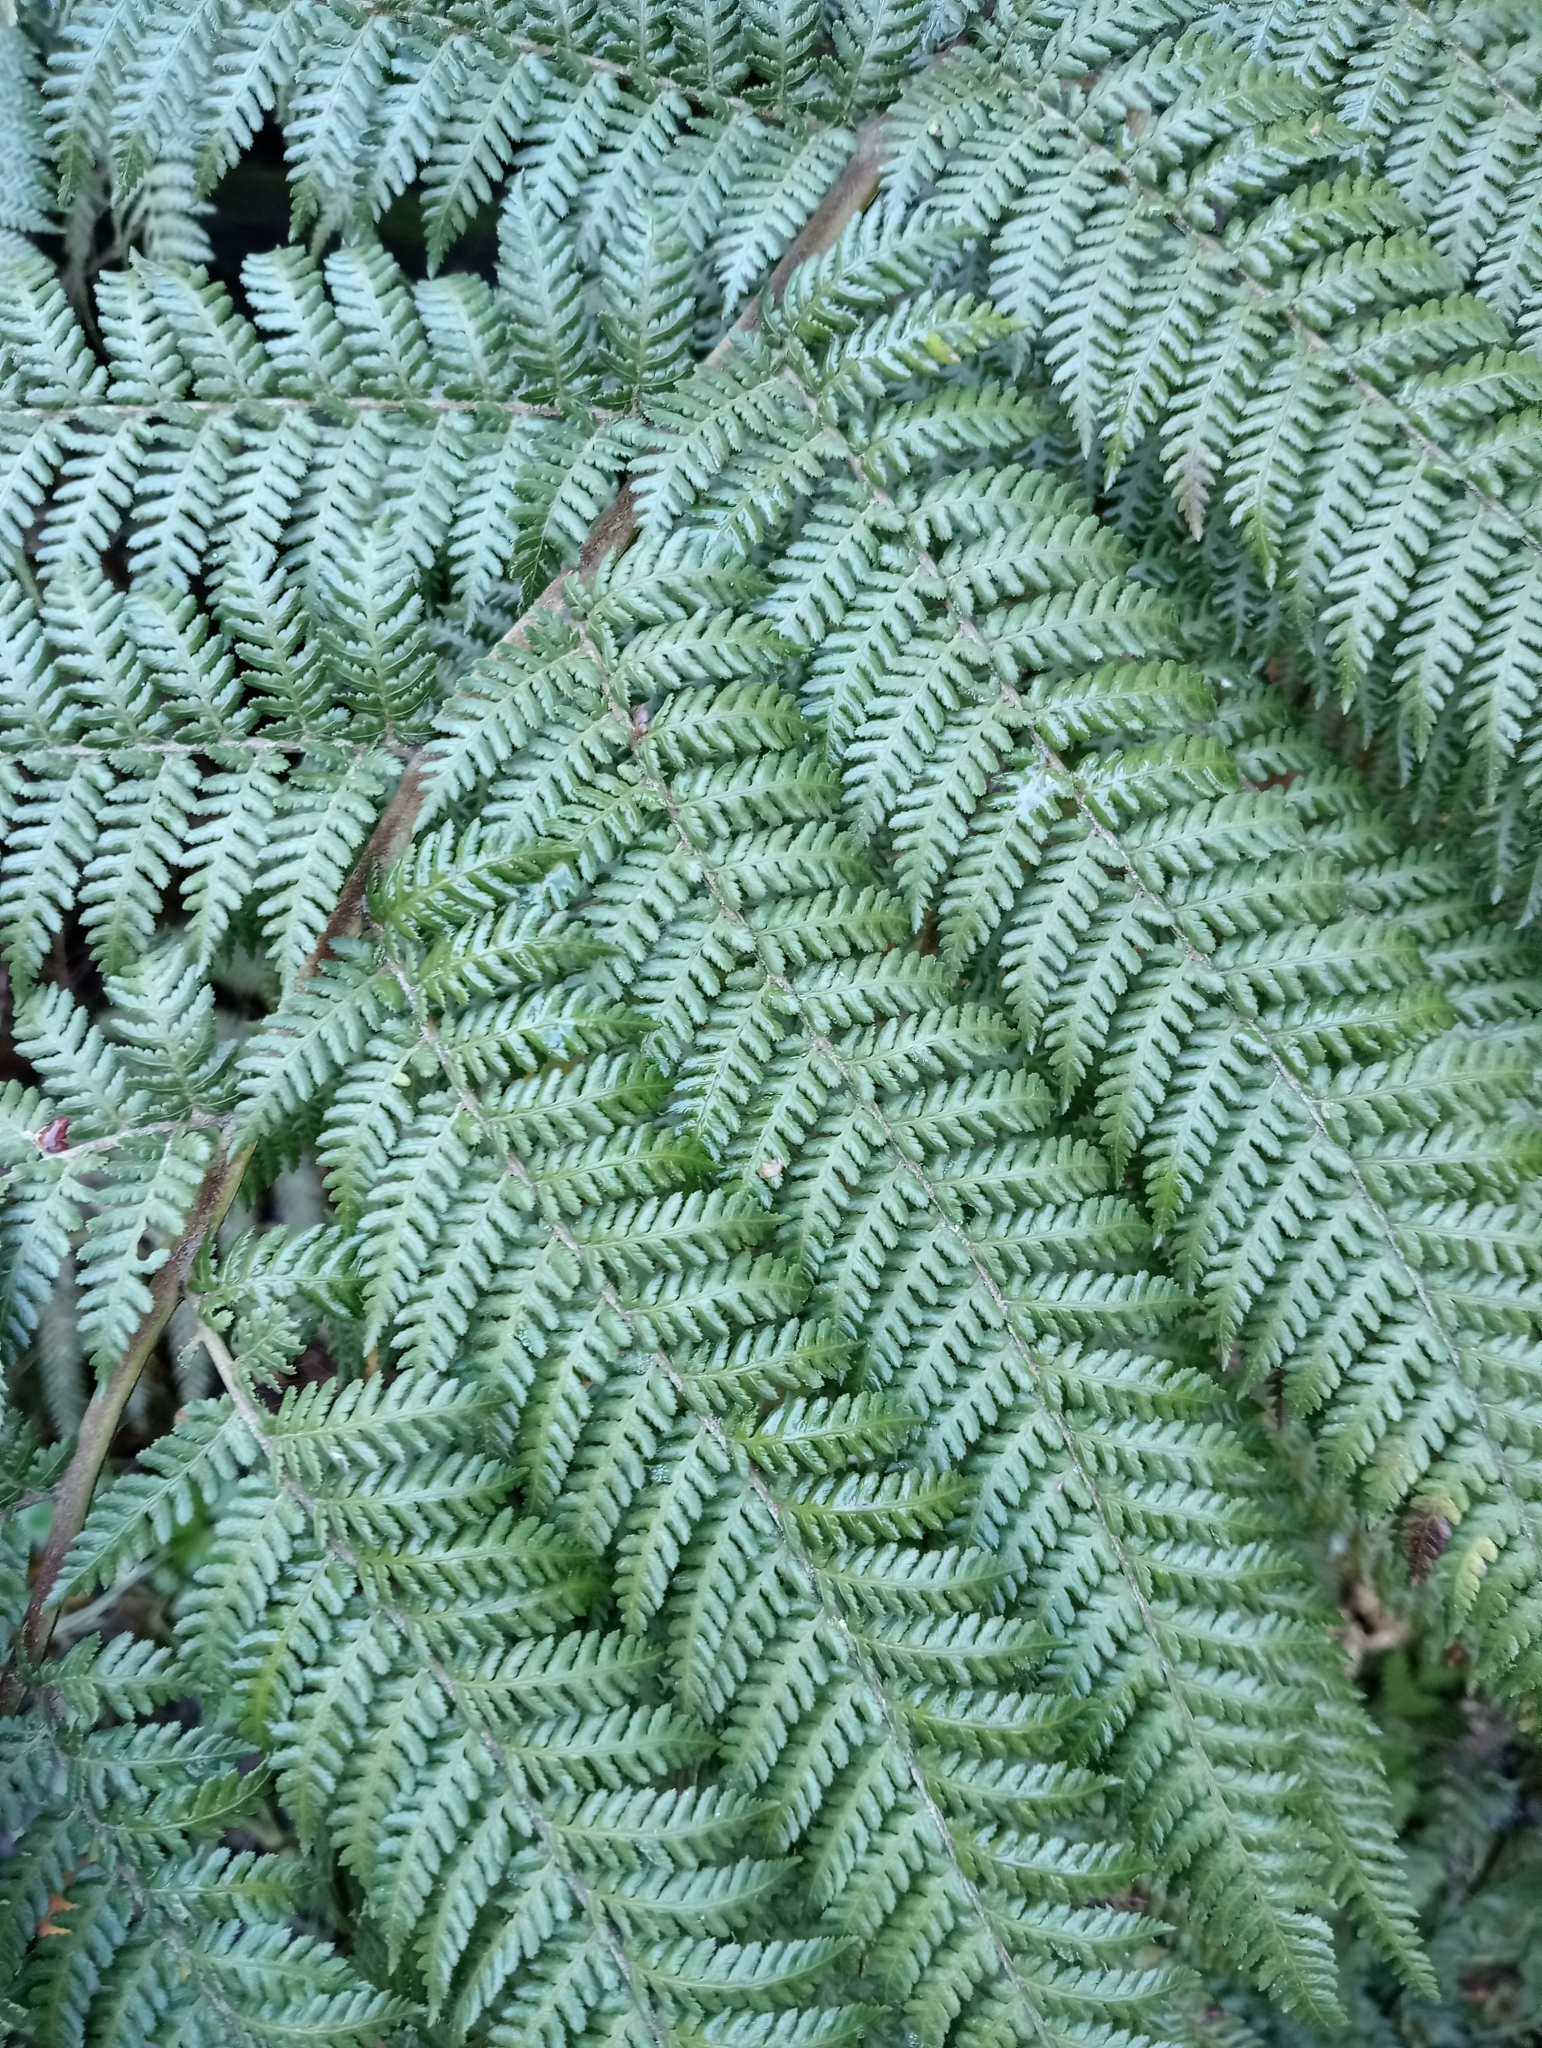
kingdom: Plantae
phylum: Tracheophyta
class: Polypodiopsida
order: Cyatheales
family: Dicksoniaceae
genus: Dicksonia
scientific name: Dicksonia squarrosa
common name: Hard treefern
